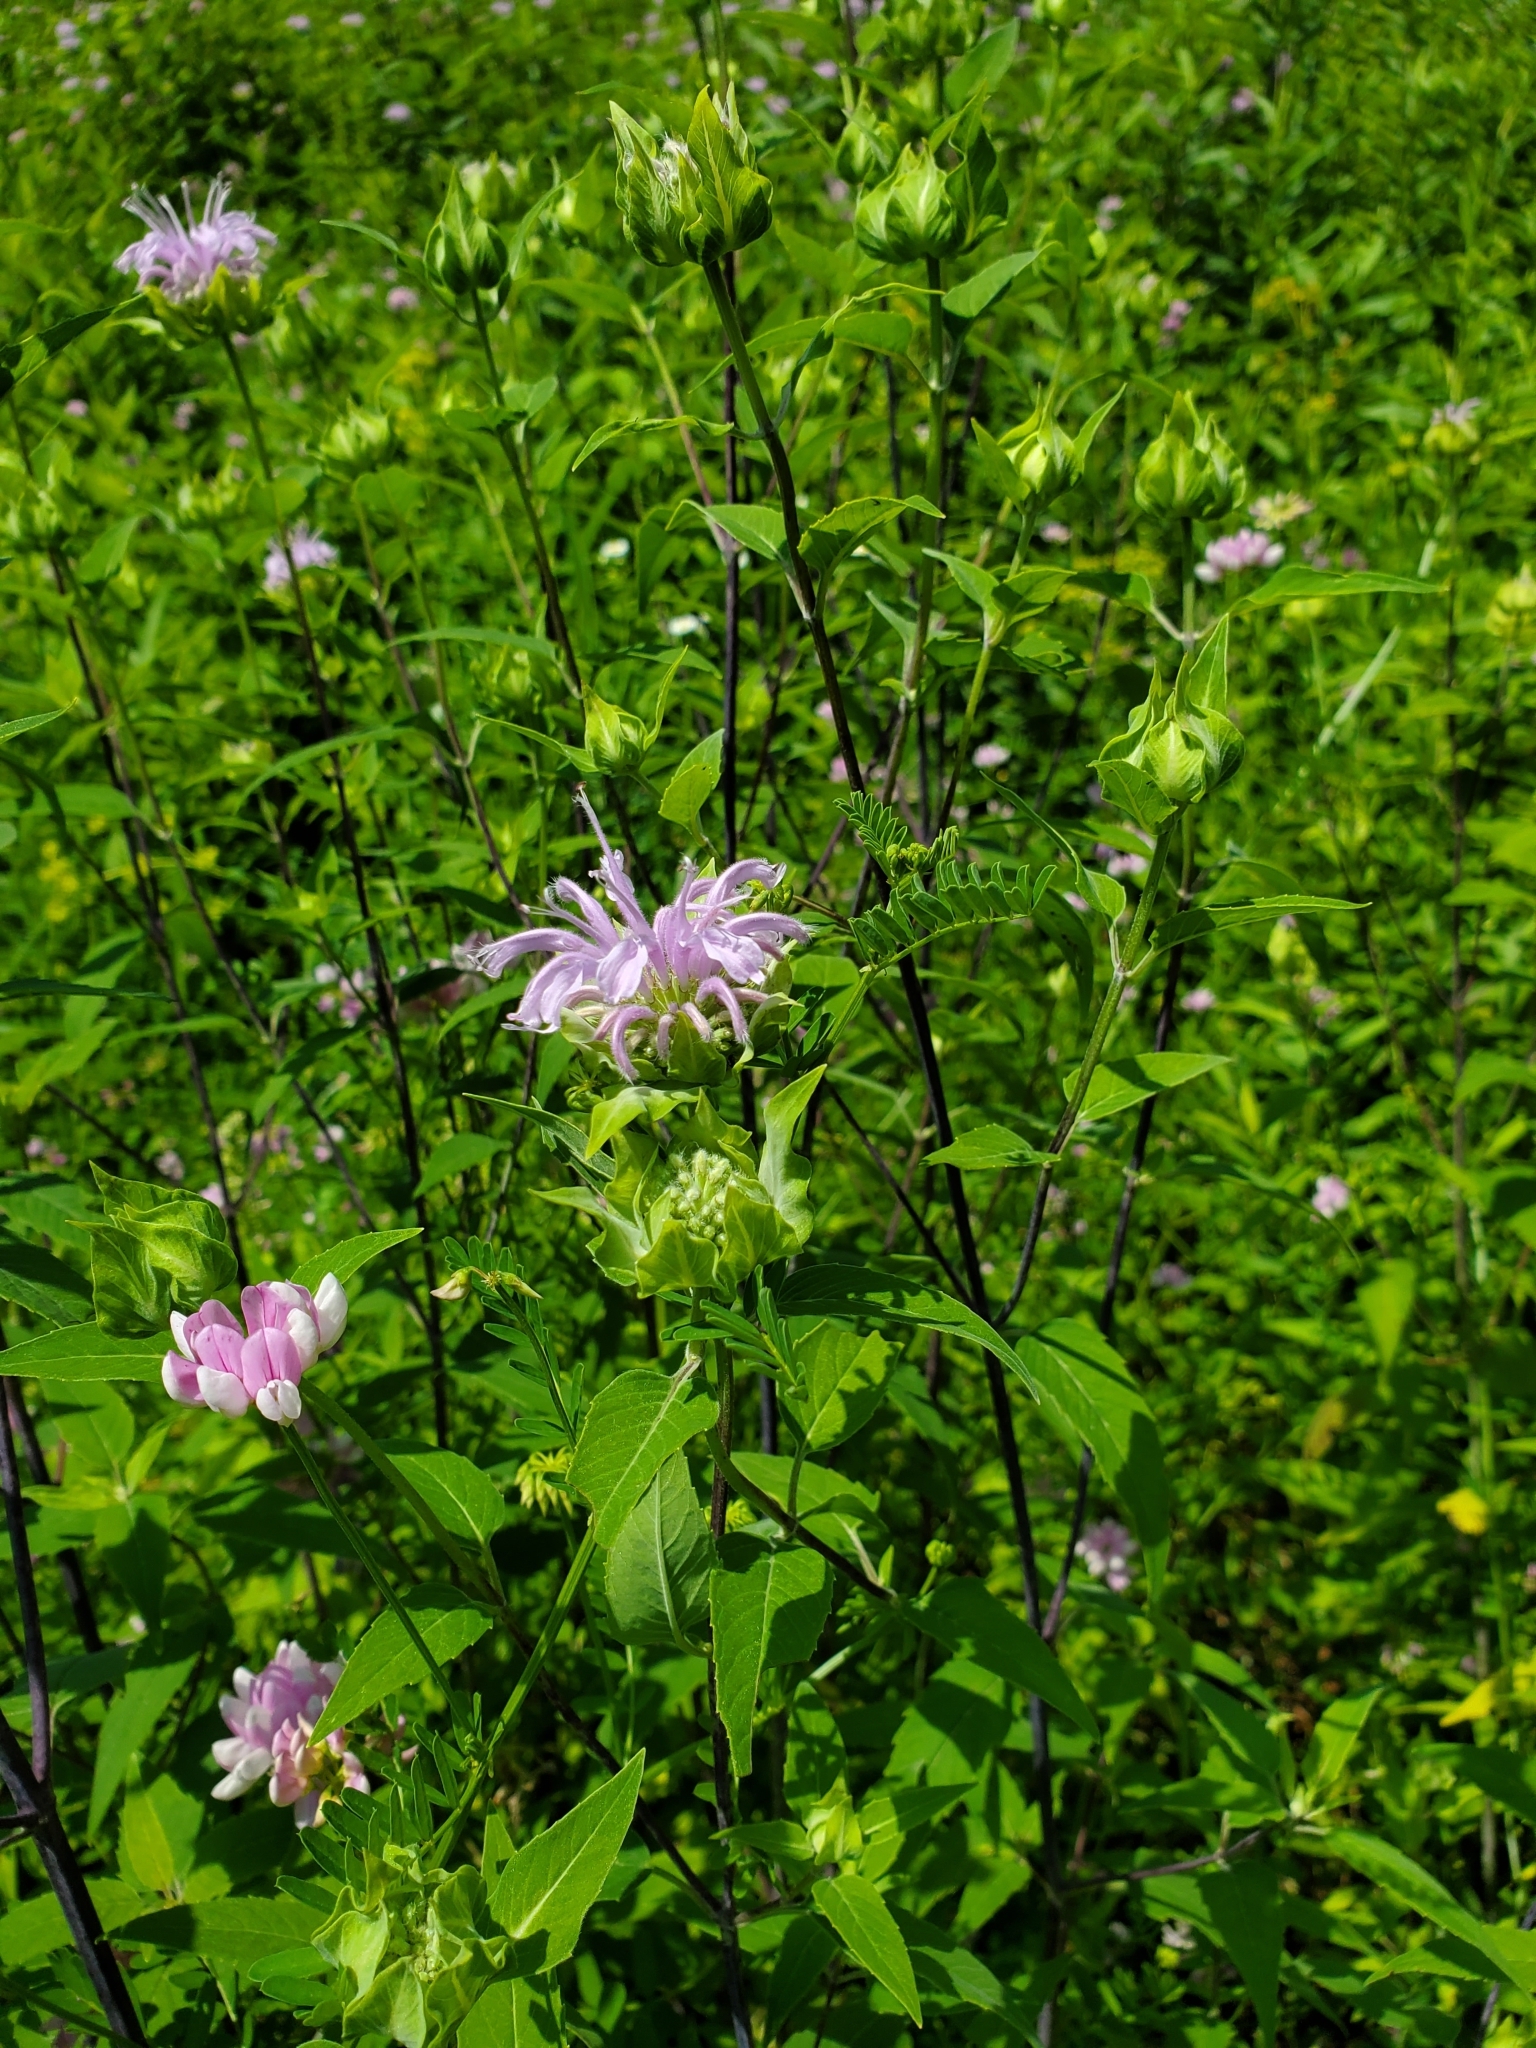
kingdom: Plantae
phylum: Tracheophyta
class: Magnoliopsida
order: Lamiales
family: Lamiaceae
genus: Monarda
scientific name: Monarda fistulosa
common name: Purple beebalm
